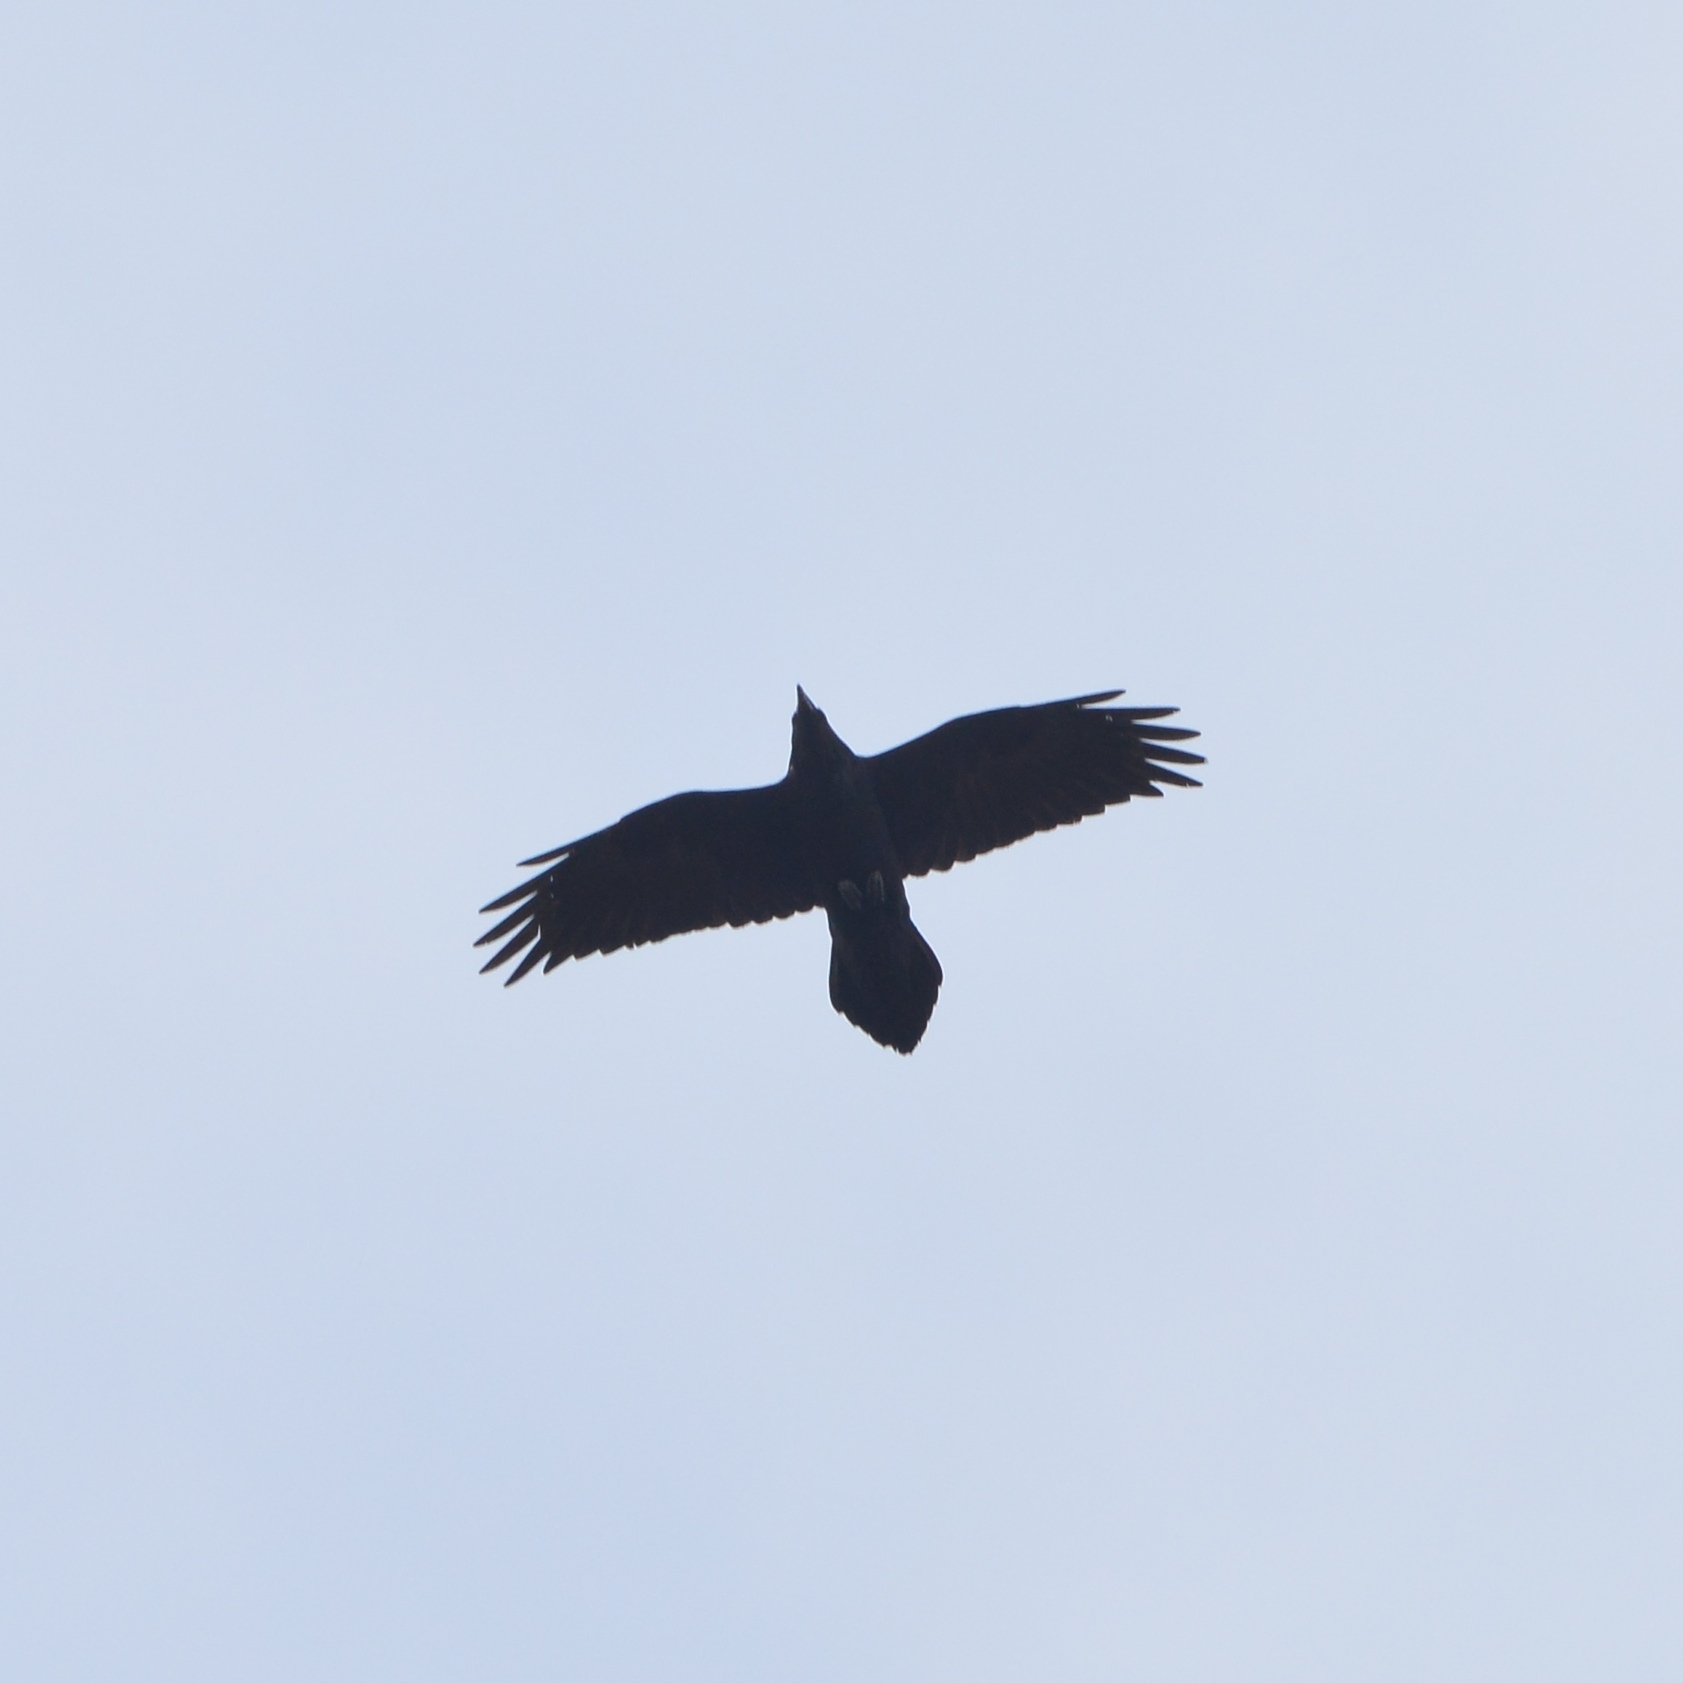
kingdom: Animalia
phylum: Chordata
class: Aves
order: Passeriformes
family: Corvidae
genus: Corvus
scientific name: Corvus corax
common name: Common raven
